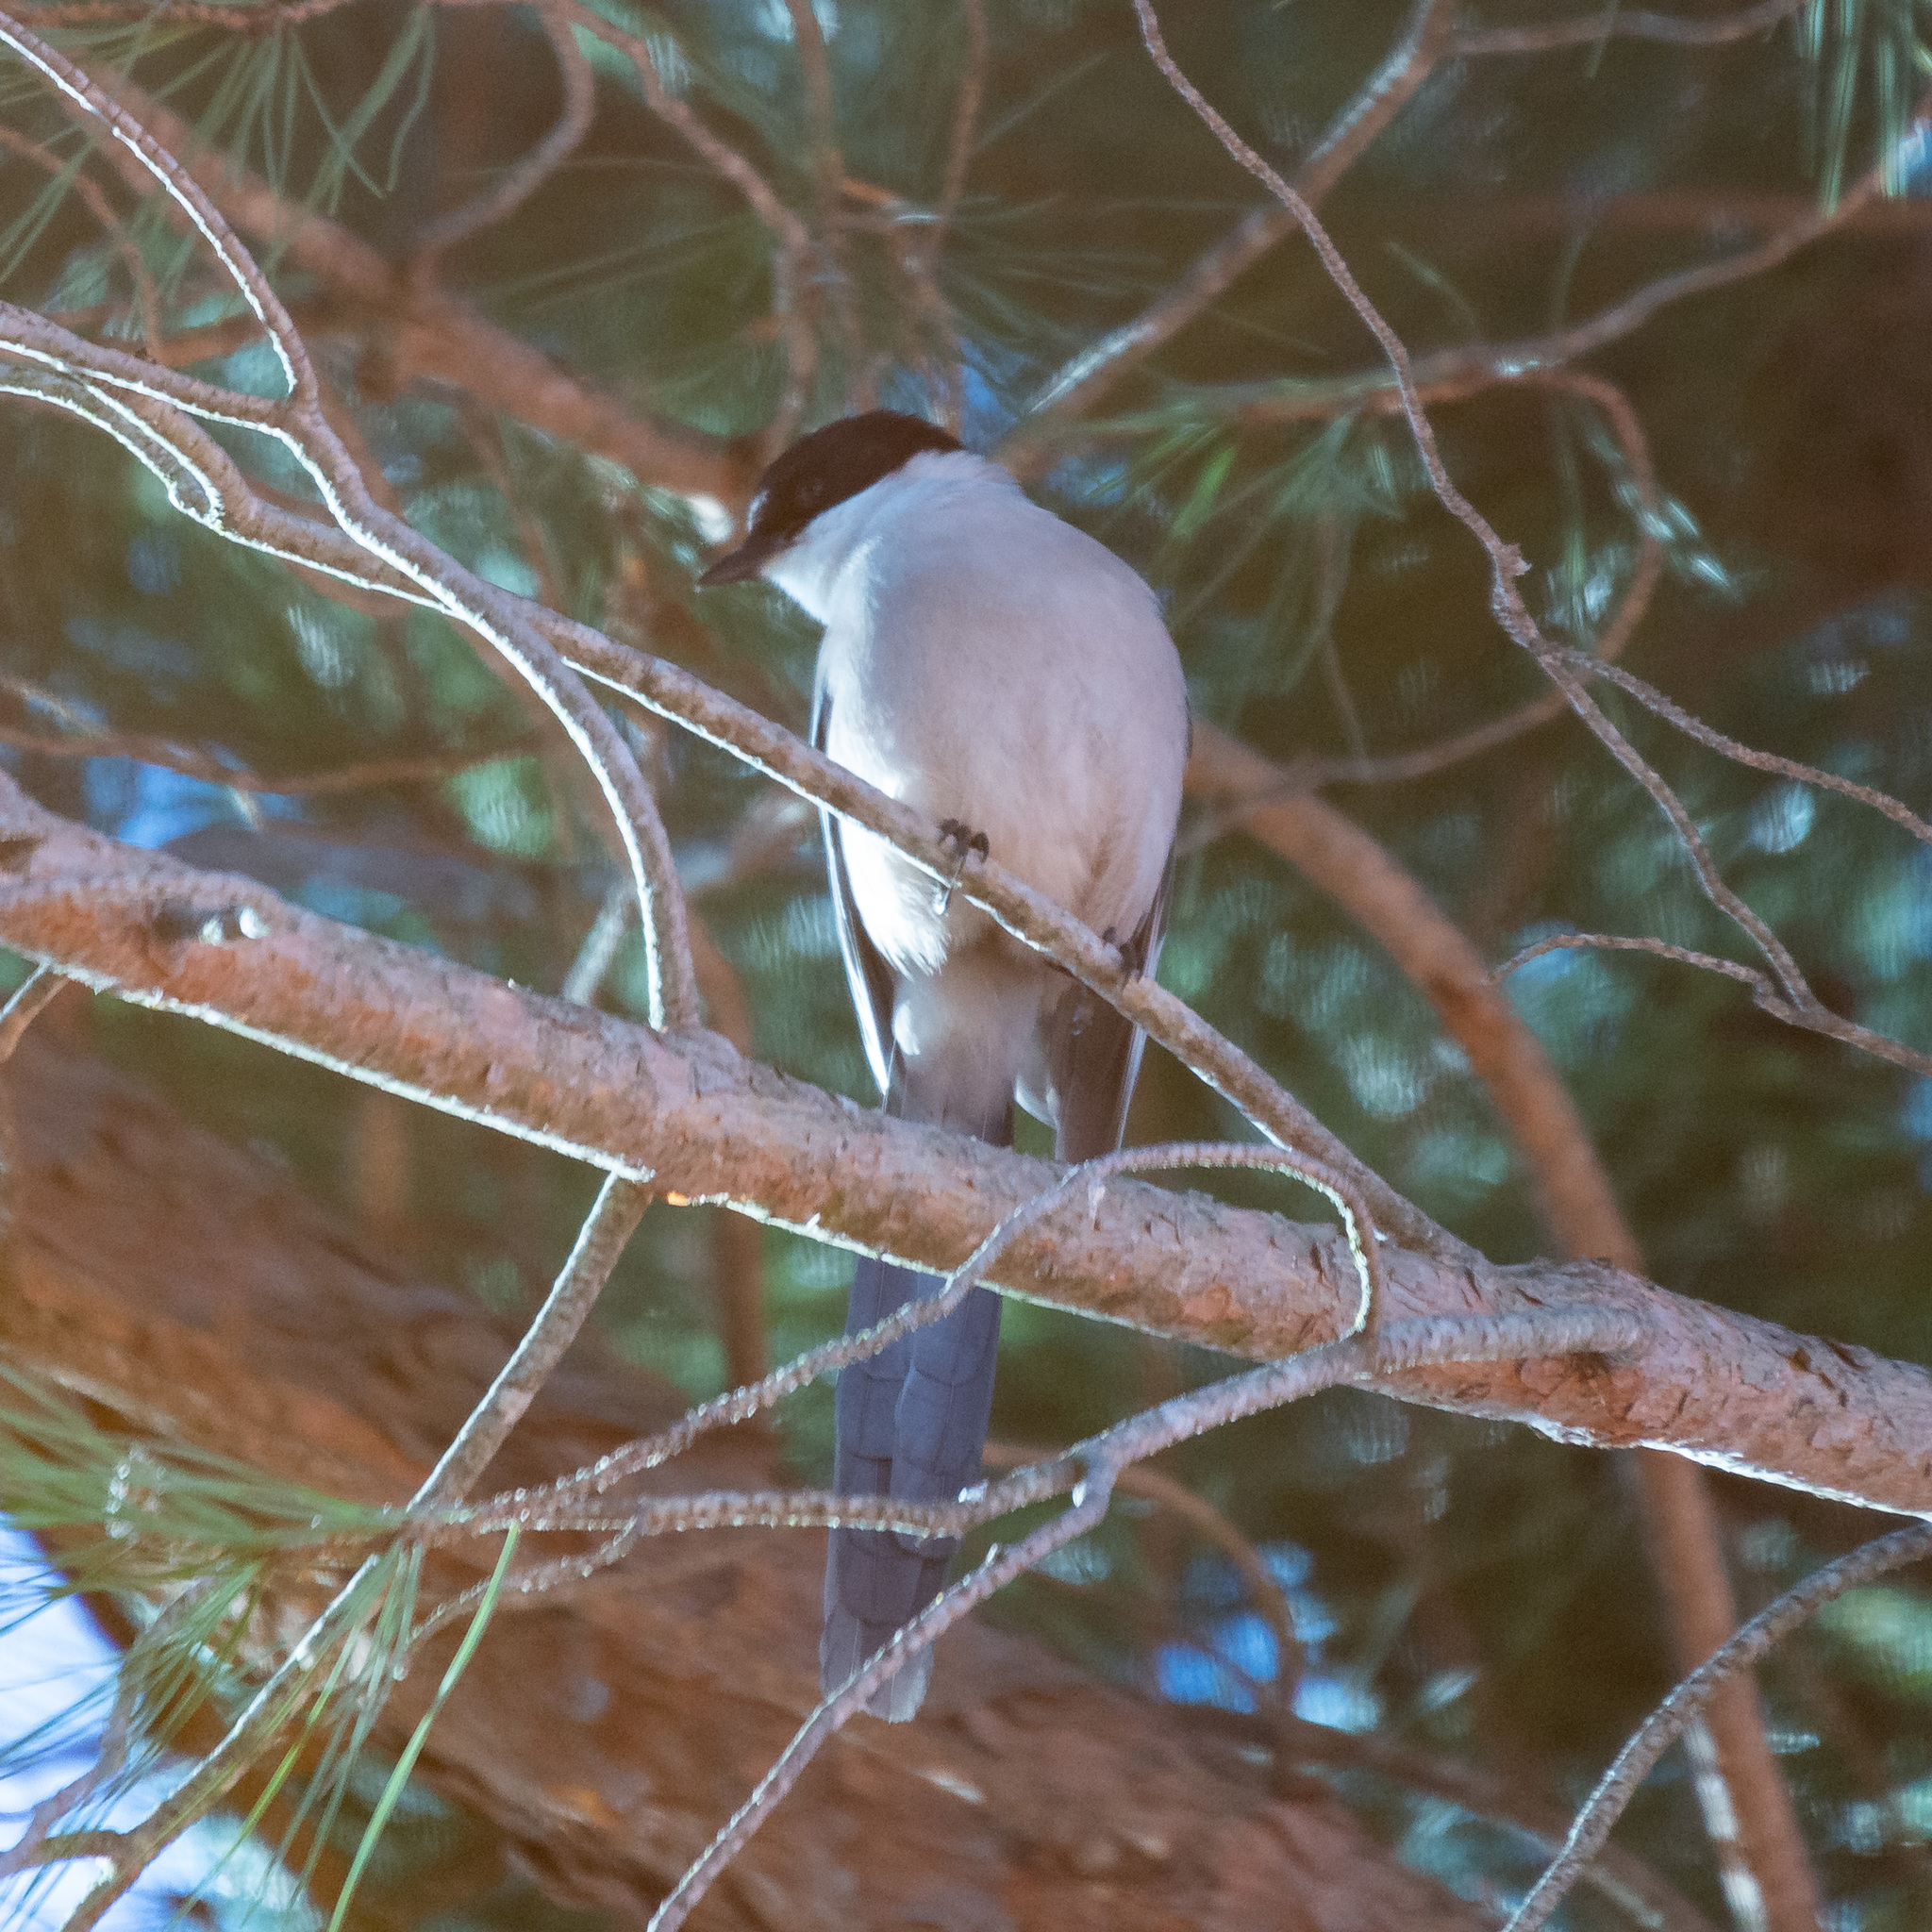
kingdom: Animalia
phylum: Chordata
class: Aves
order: Passeriformes
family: Corvidae
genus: Cyanopica
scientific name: Cyanopica cooki
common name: Iberian magpie
